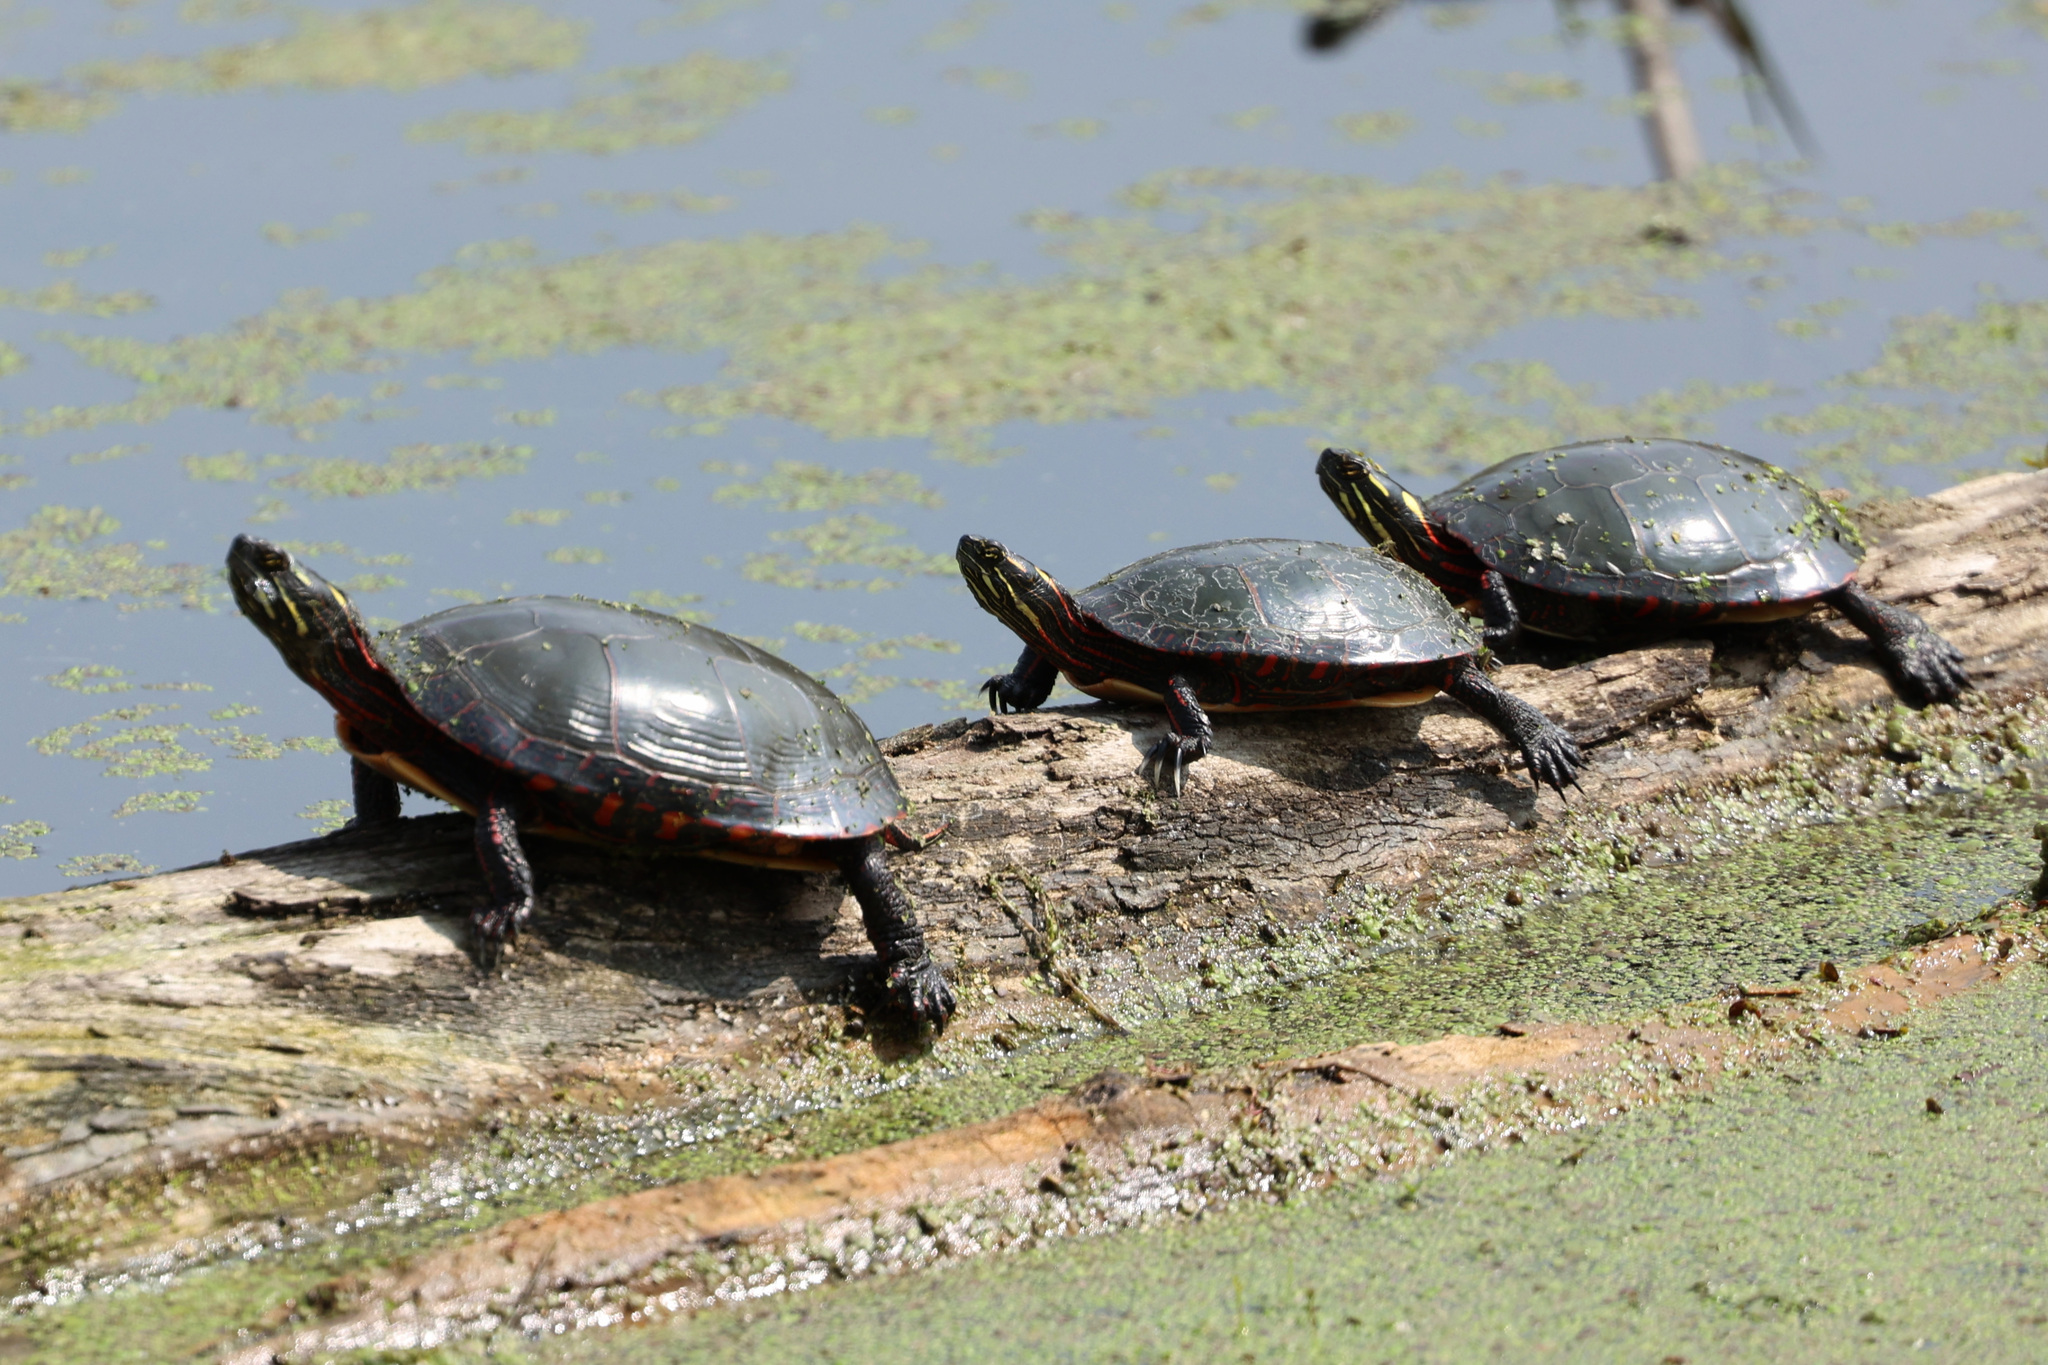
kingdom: Animalia
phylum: Chordata
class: Testudines
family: Emydidae
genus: Chrysemys
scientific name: Chrysemys picta
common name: Painted turtle
